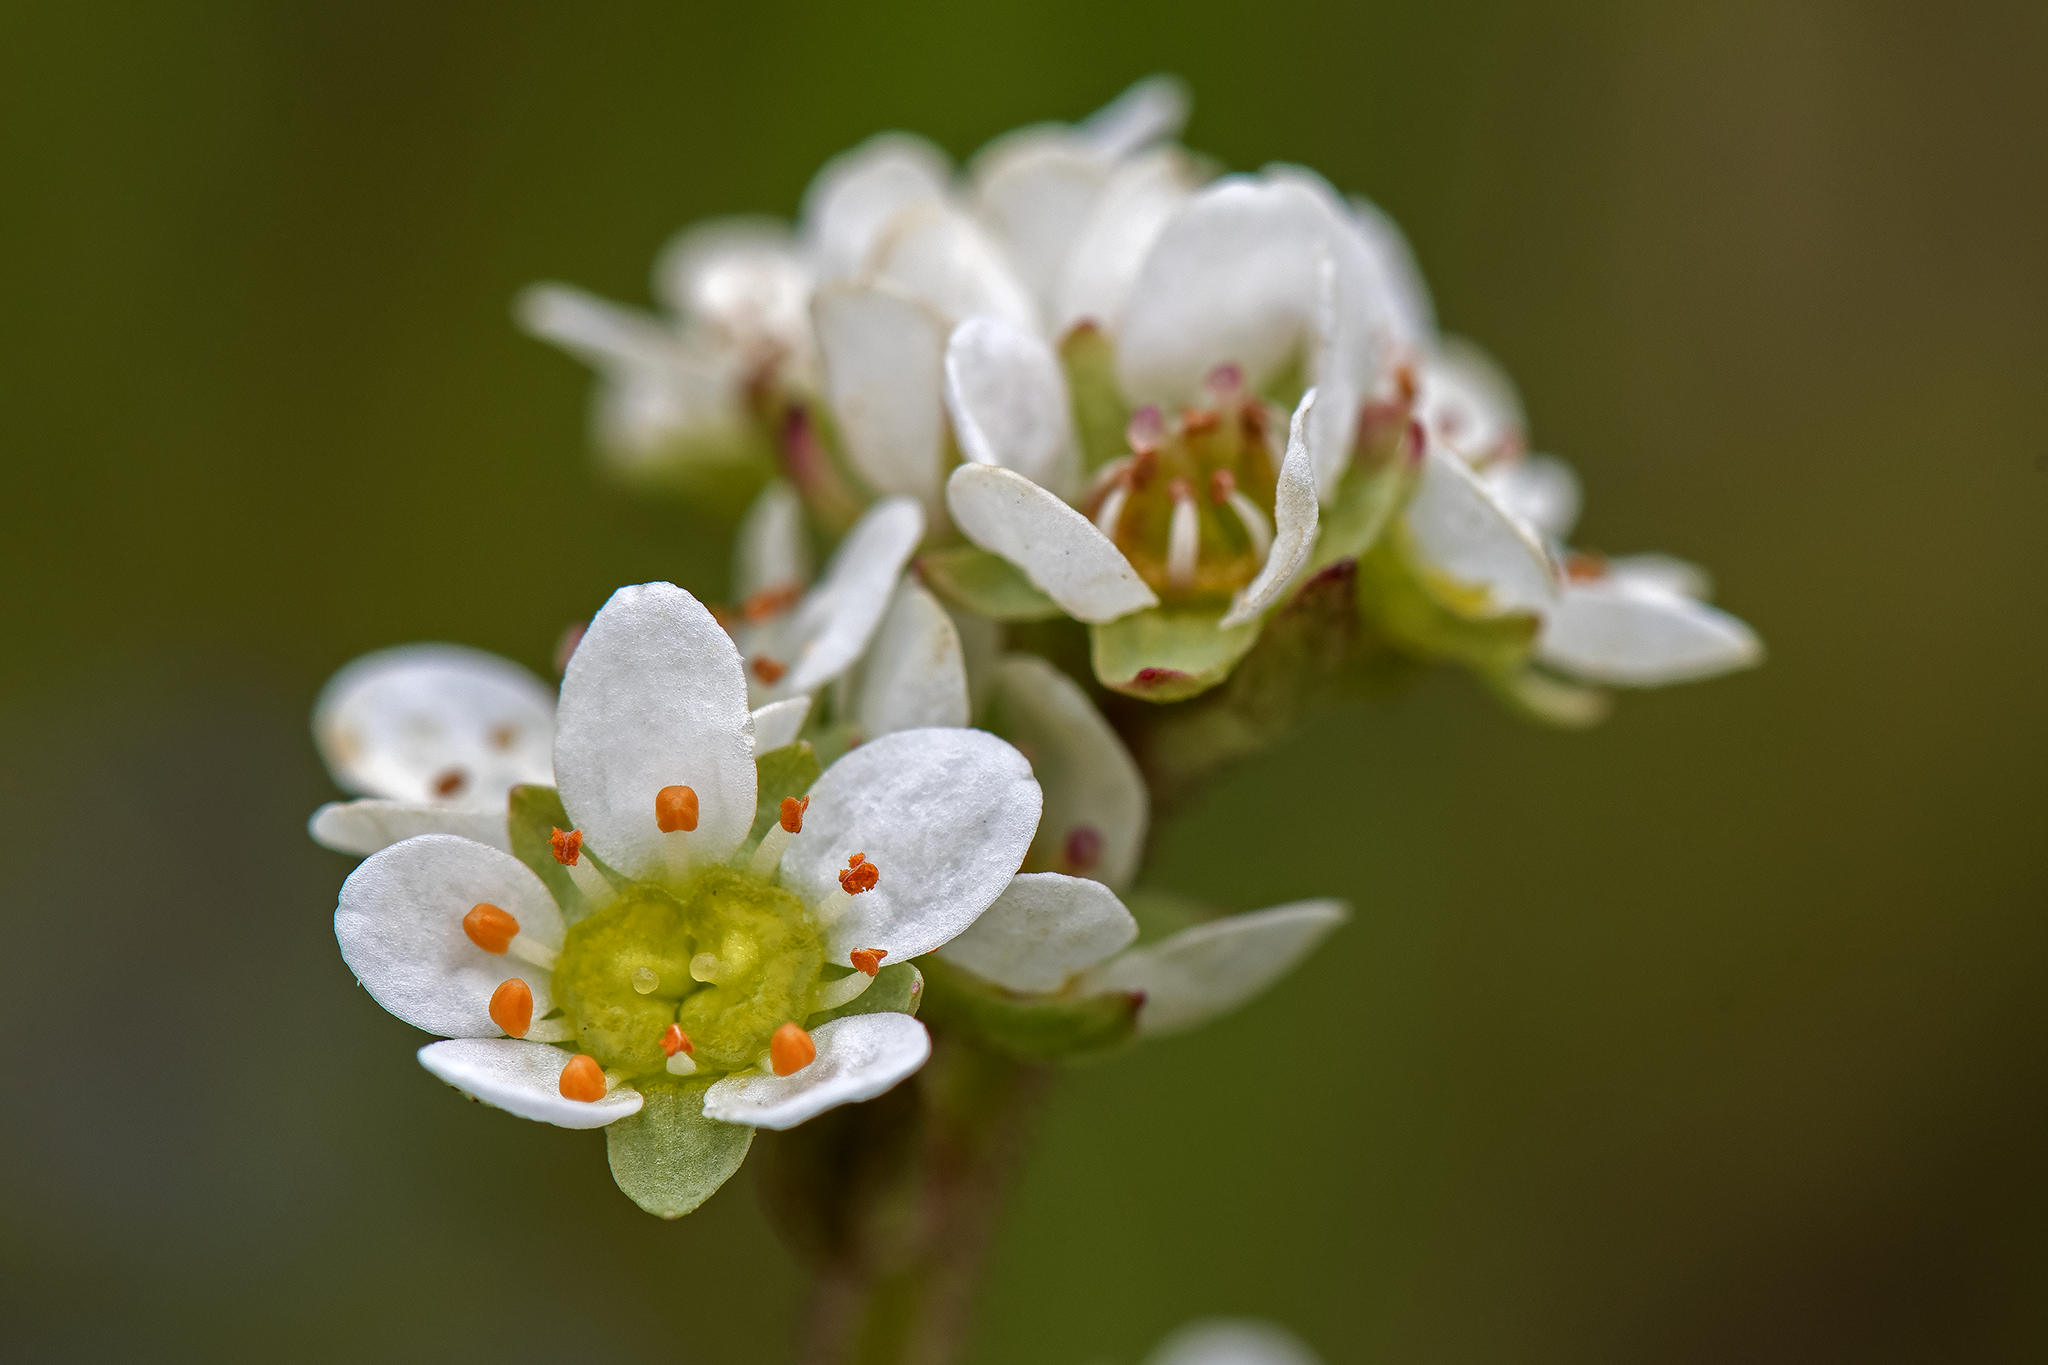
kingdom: Plantae
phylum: Tracheophyta
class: Magnoliopsida
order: Saxifragales
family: Saxifragaceae
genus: Micranthes
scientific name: Micranthes integrifolia
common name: Wholeleaf saxifrage
